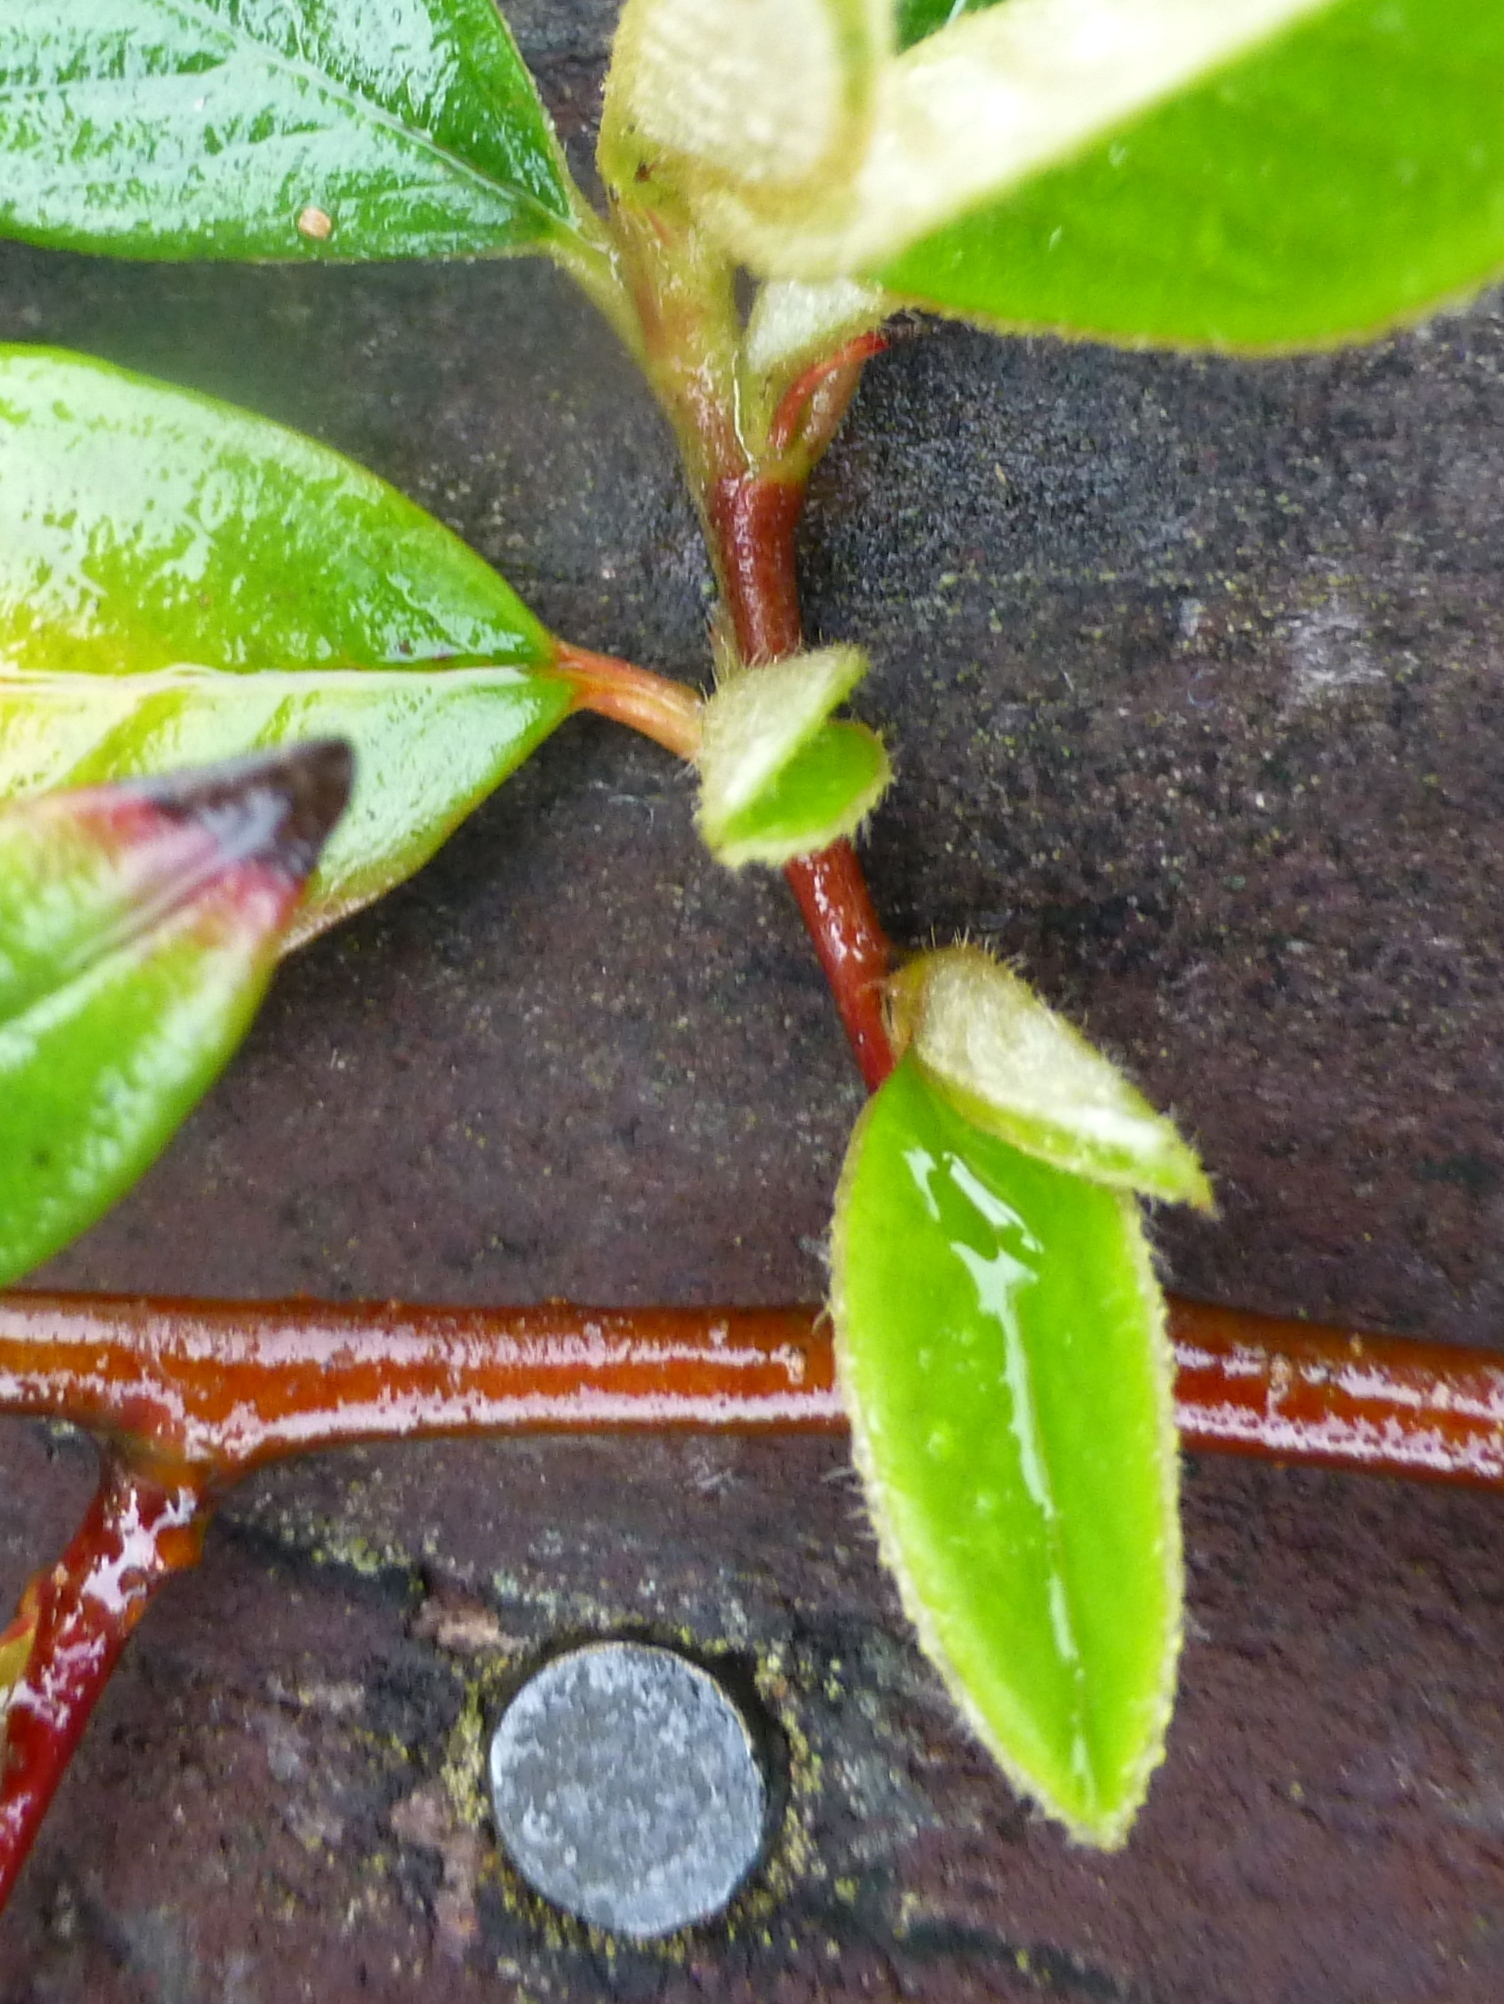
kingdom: Plantae
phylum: Tracheophyta
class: Magnoliopsida
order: Rosales
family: Rosaceae
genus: Cotoneaster
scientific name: Cotoneaster coriaceus
